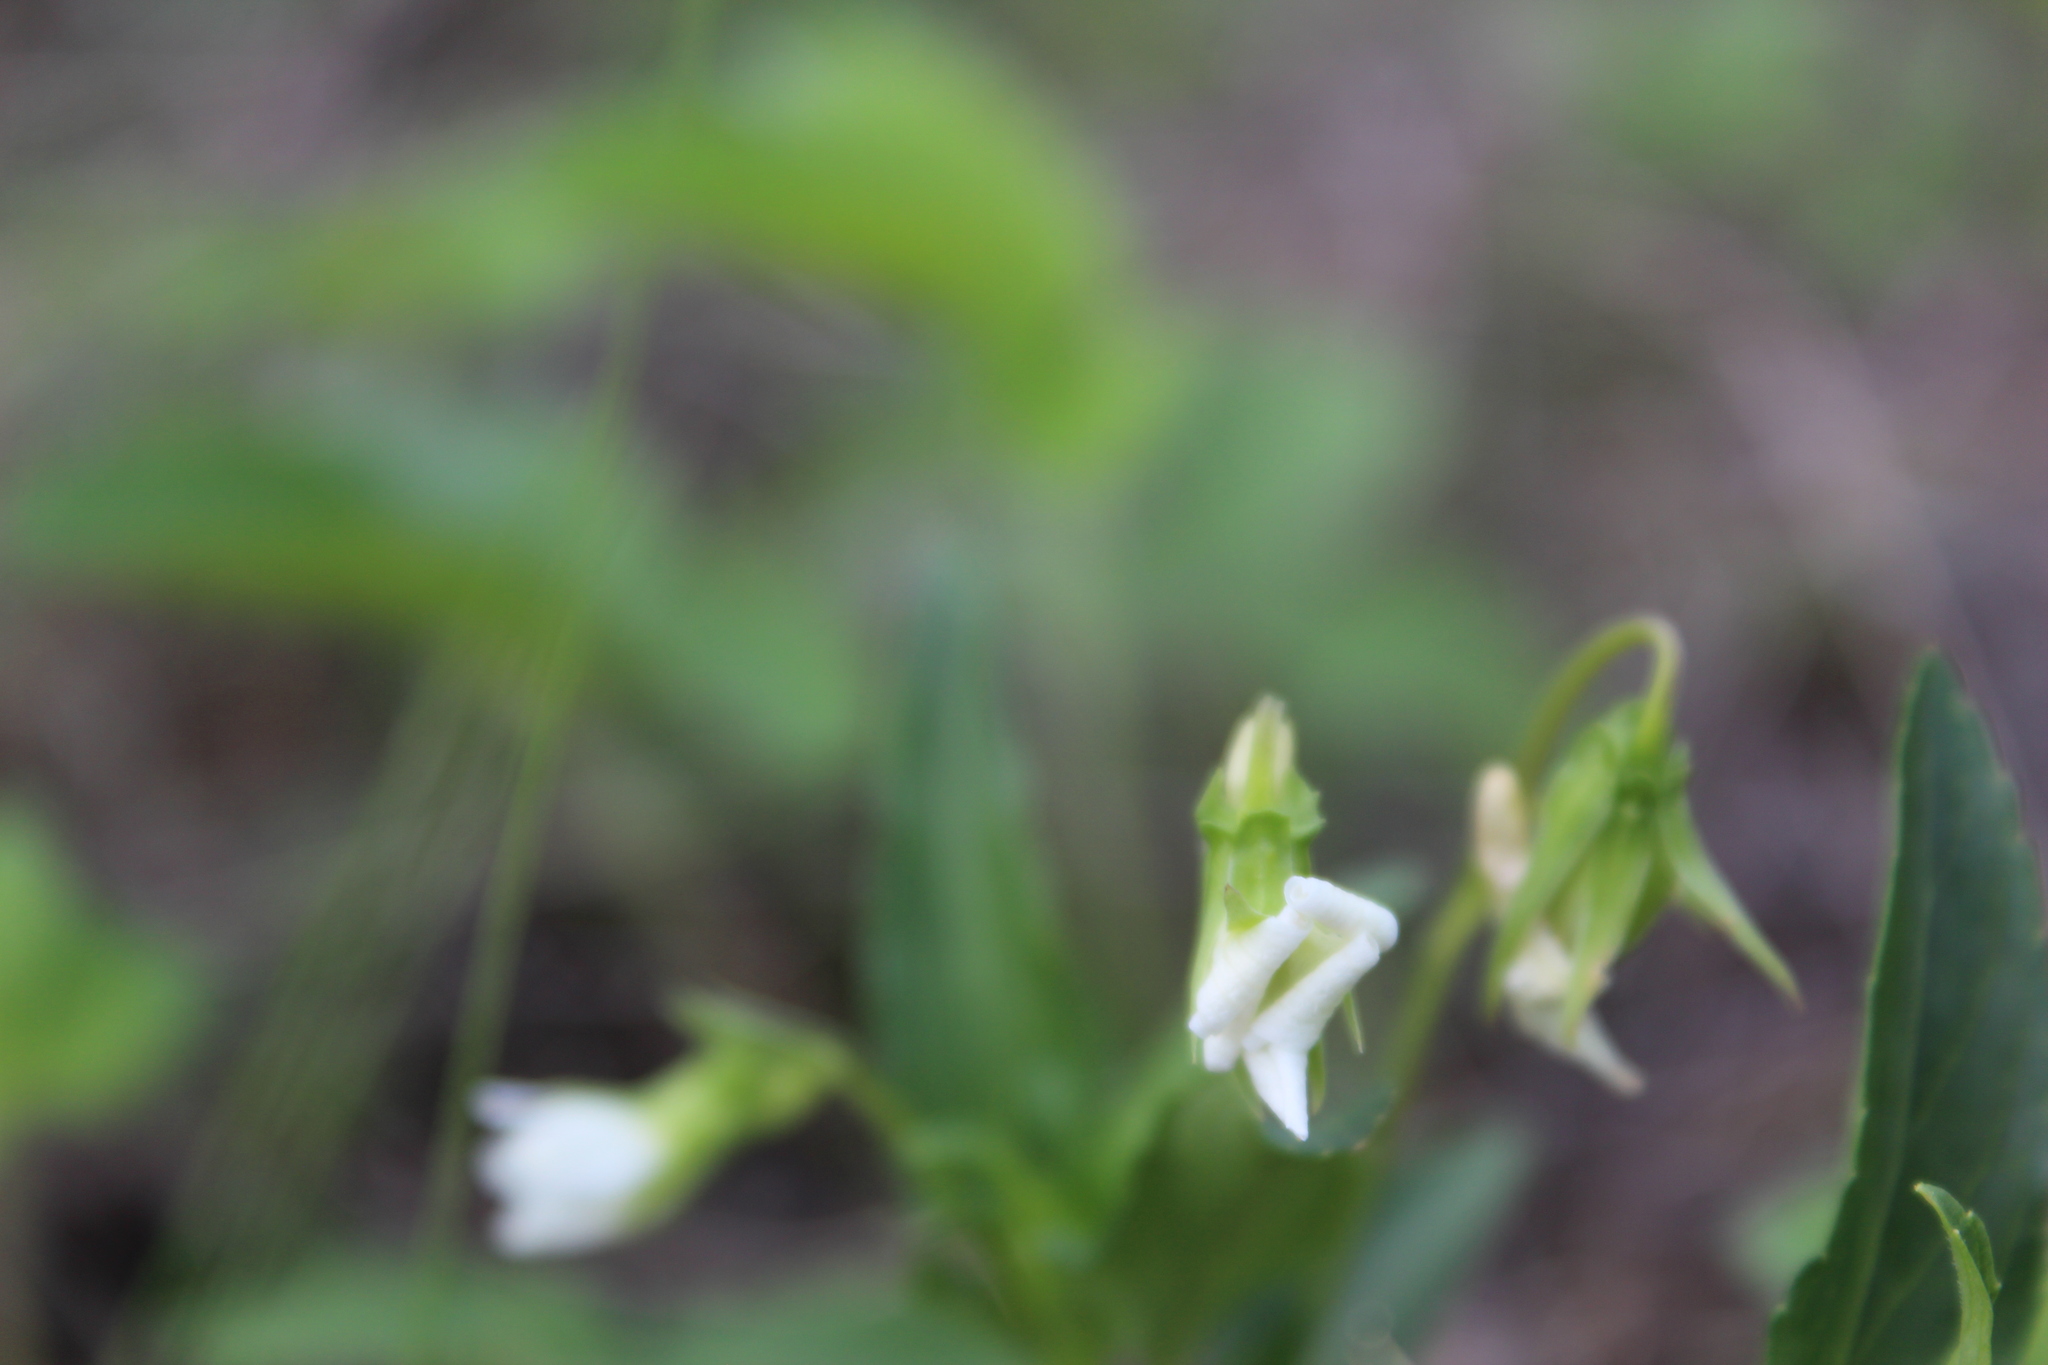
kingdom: Plantae
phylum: Tracheophyta
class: Magnoliopsida
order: Malpighiales
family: Violaceae
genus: Viola
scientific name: Viola pumila
